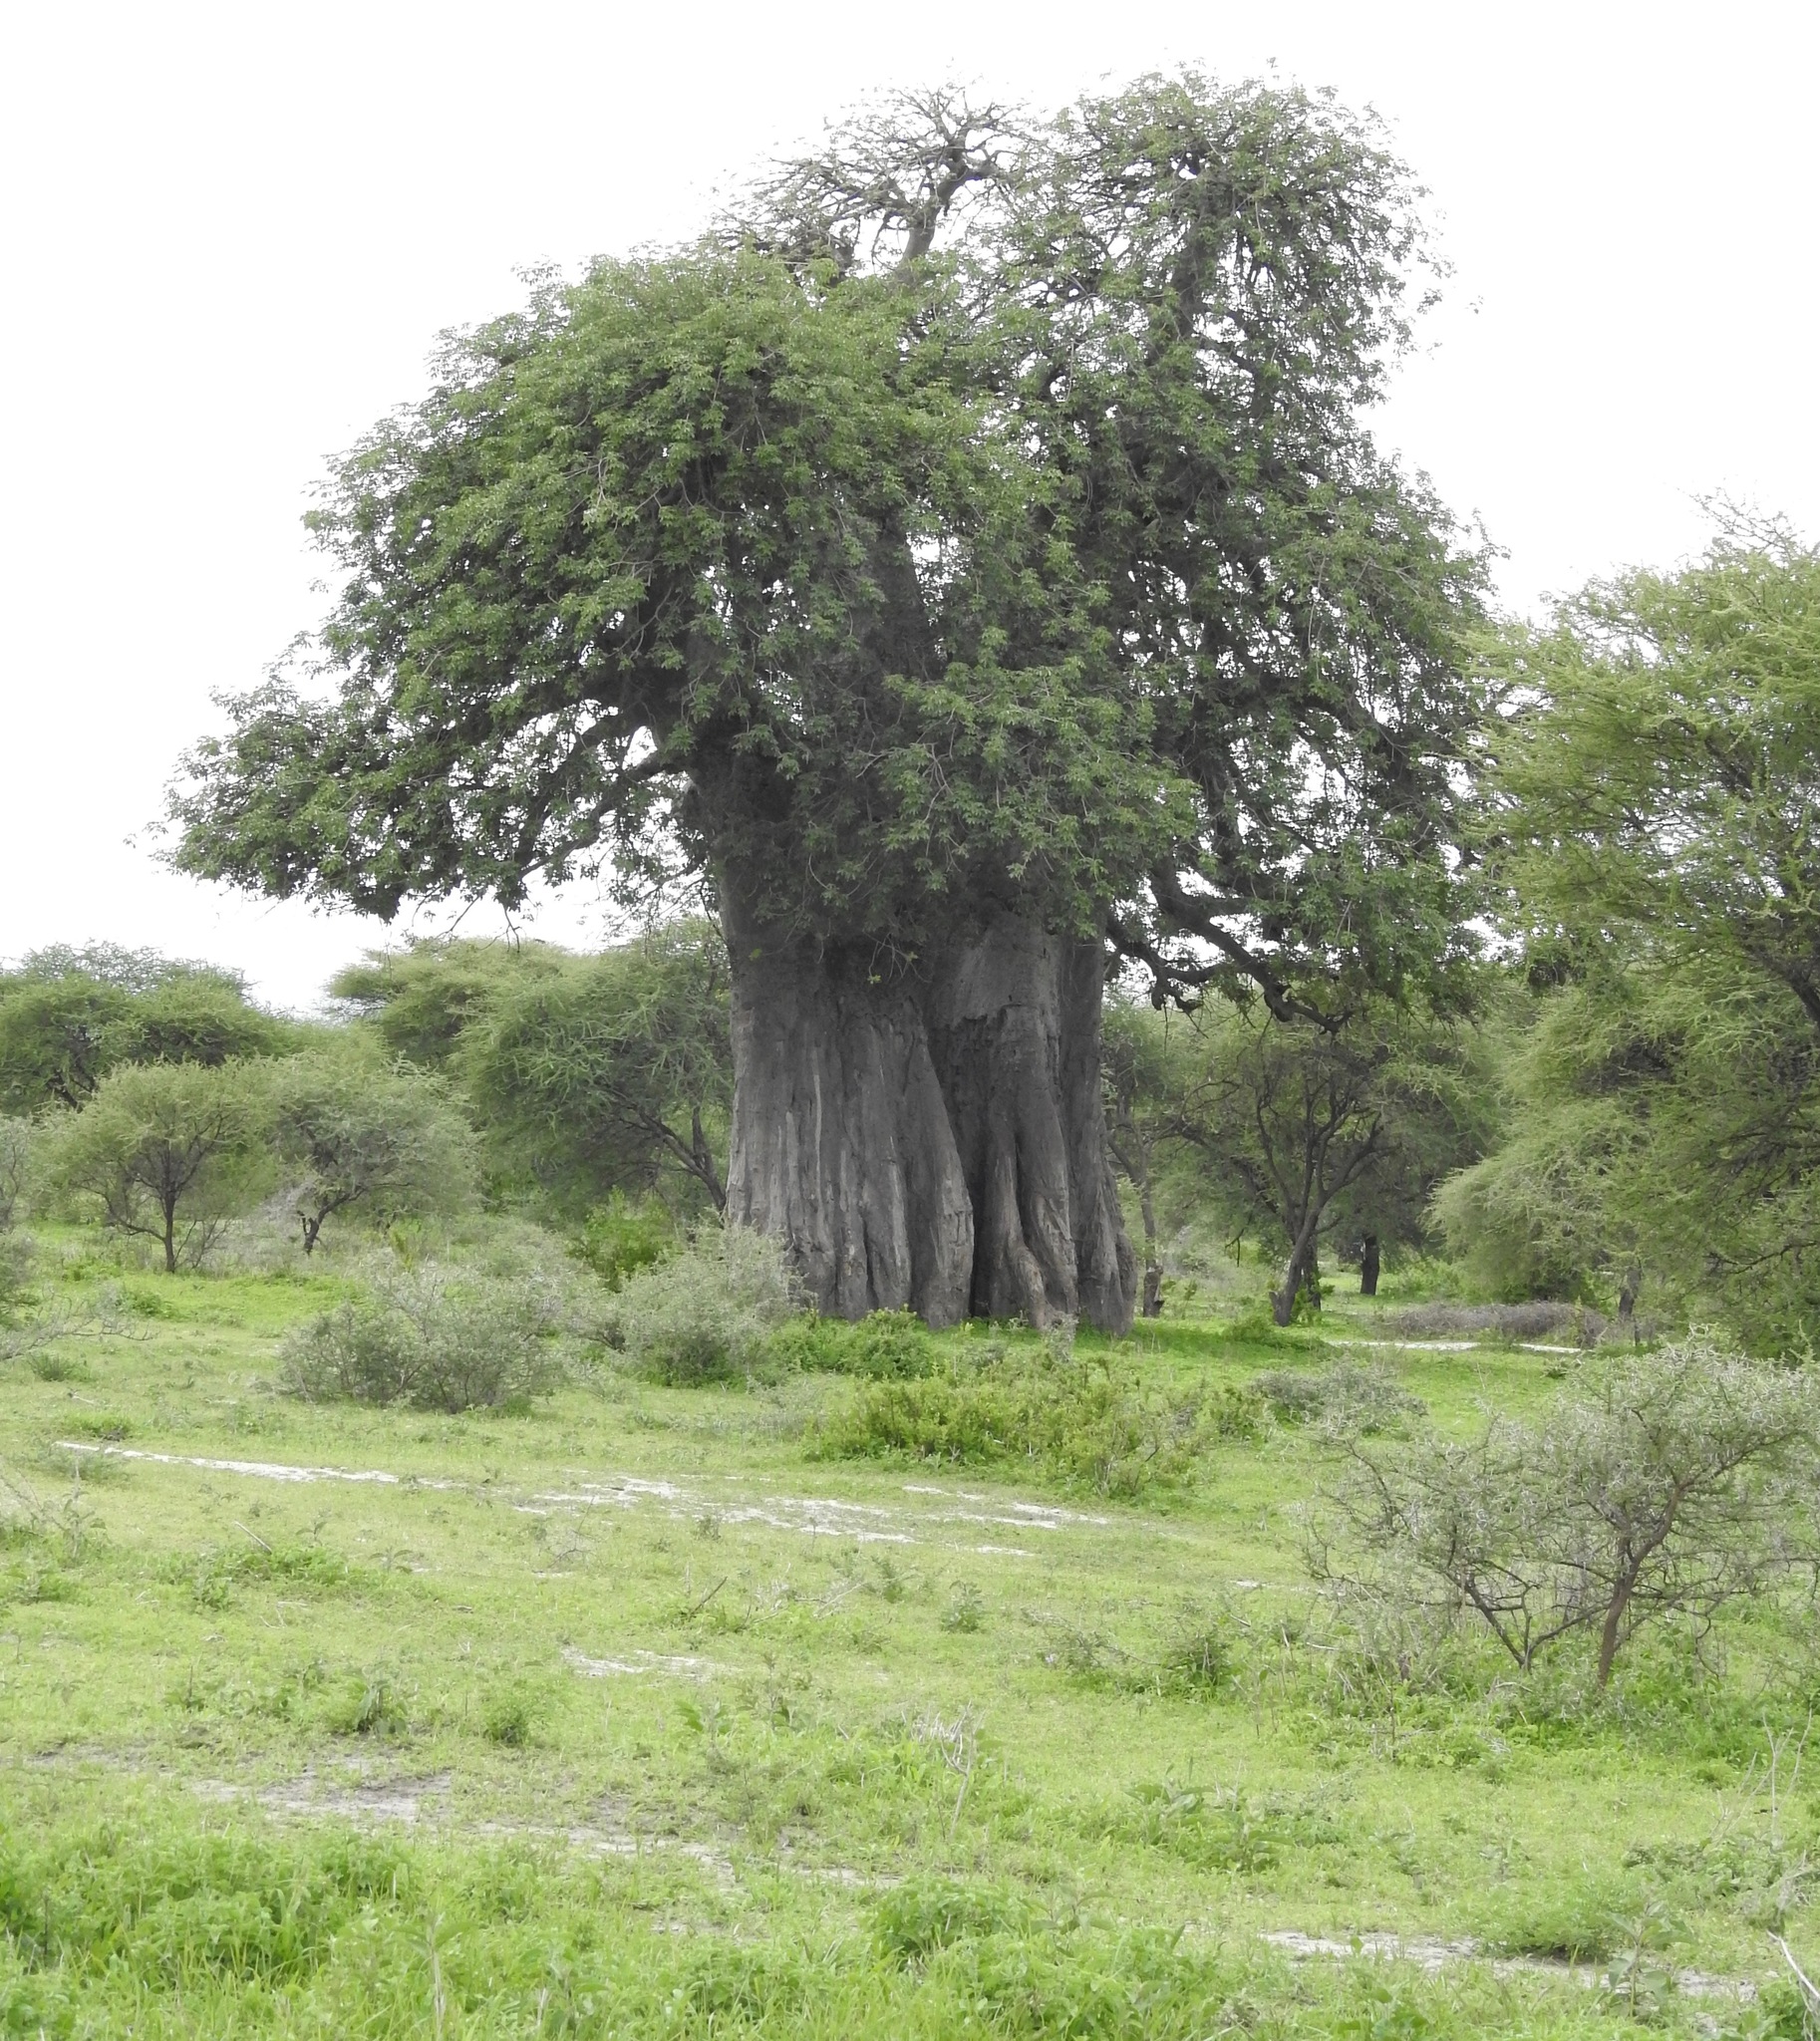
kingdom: Plantae
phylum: Tracheophyta
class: Magnoliopsida
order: Malvales
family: Malvaceae
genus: Adansonia
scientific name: Adansonia digitata
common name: Dead-rat-tree
